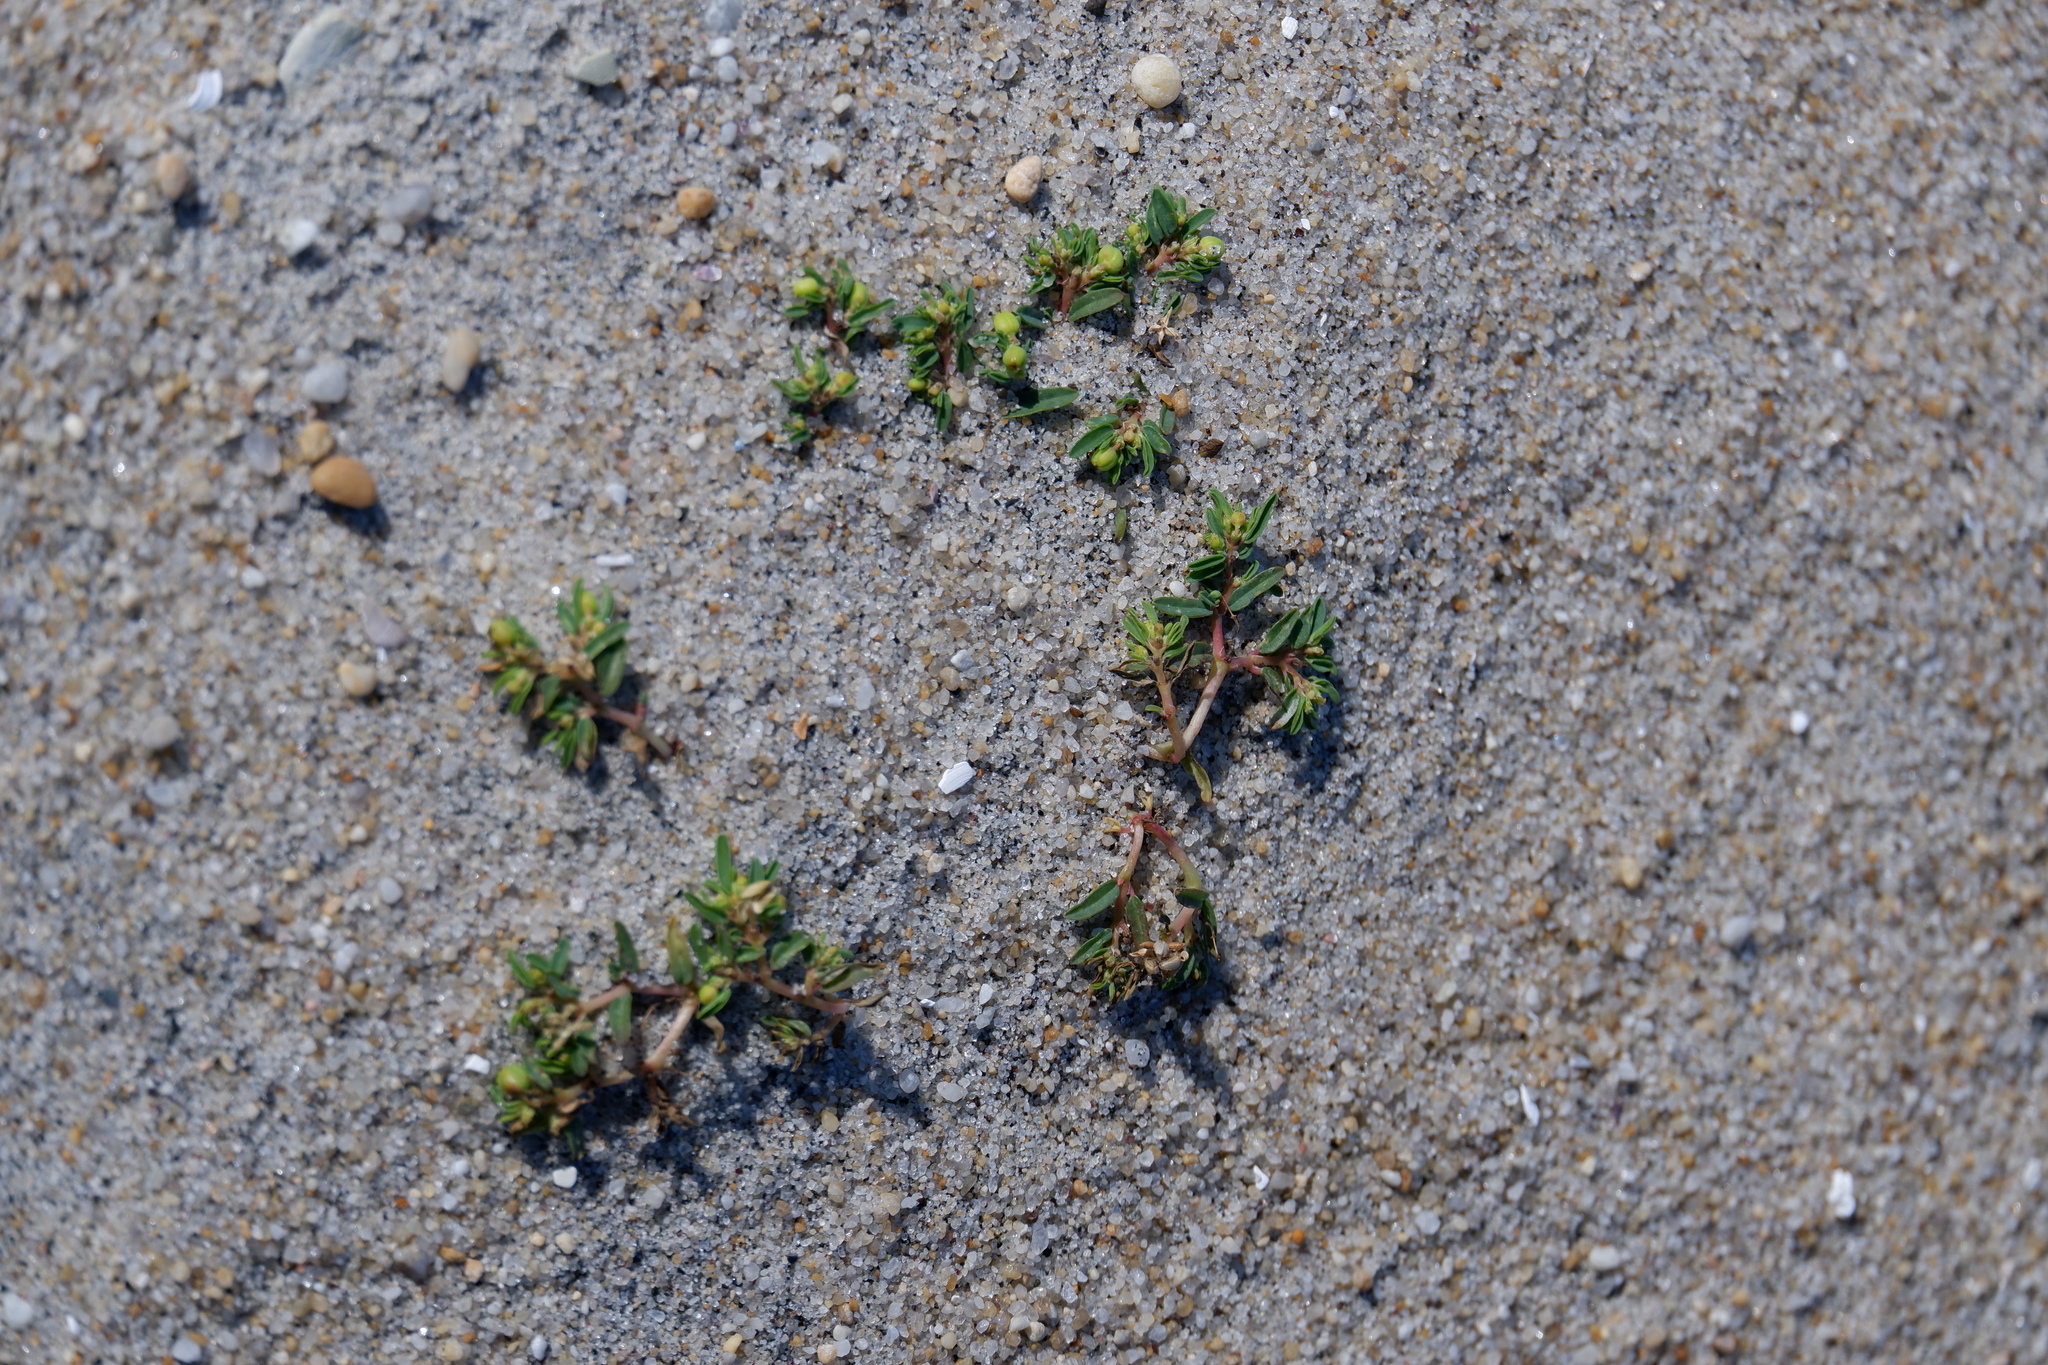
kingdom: Plantae
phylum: Tracheophyta
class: Magnoliopsida
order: Malpighiales
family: Euphorbiaceae
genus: Euphorbia
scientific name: Euphorbia polygonifolia
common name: Knotweed spurge
